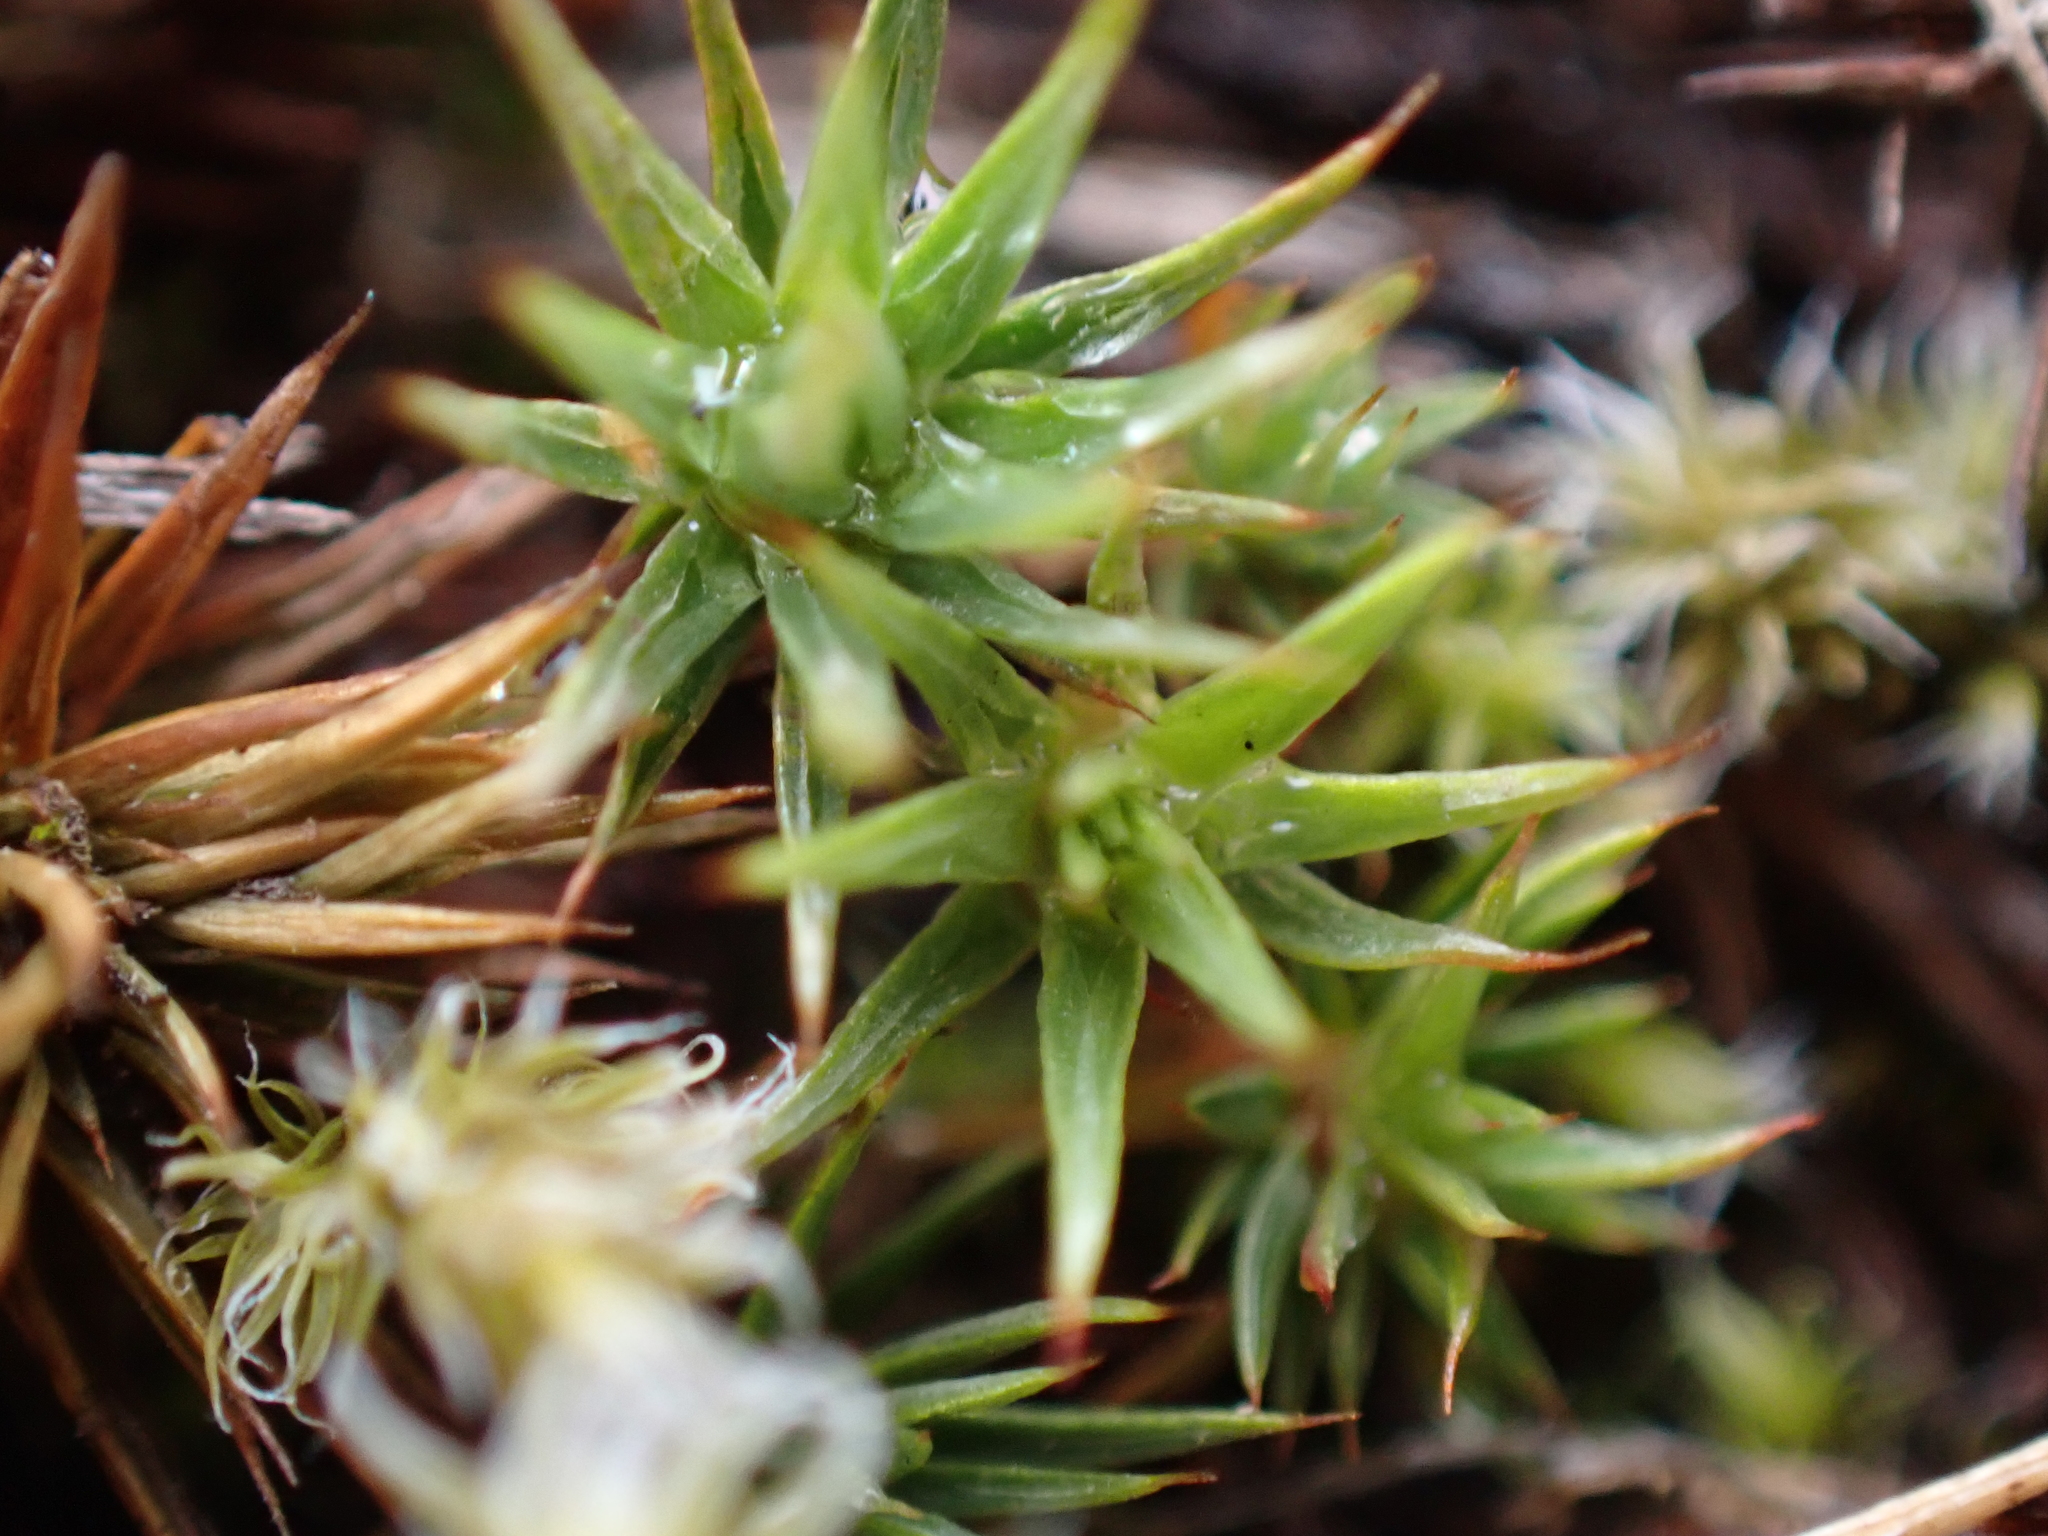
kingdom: Plantae
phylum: Bryophyta
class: Polytrichopsida
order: Polytrichales
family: Polytrichaceae
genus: Polytrichum
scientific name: Polytrichum juniperinum
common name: Juniper haircap moss
